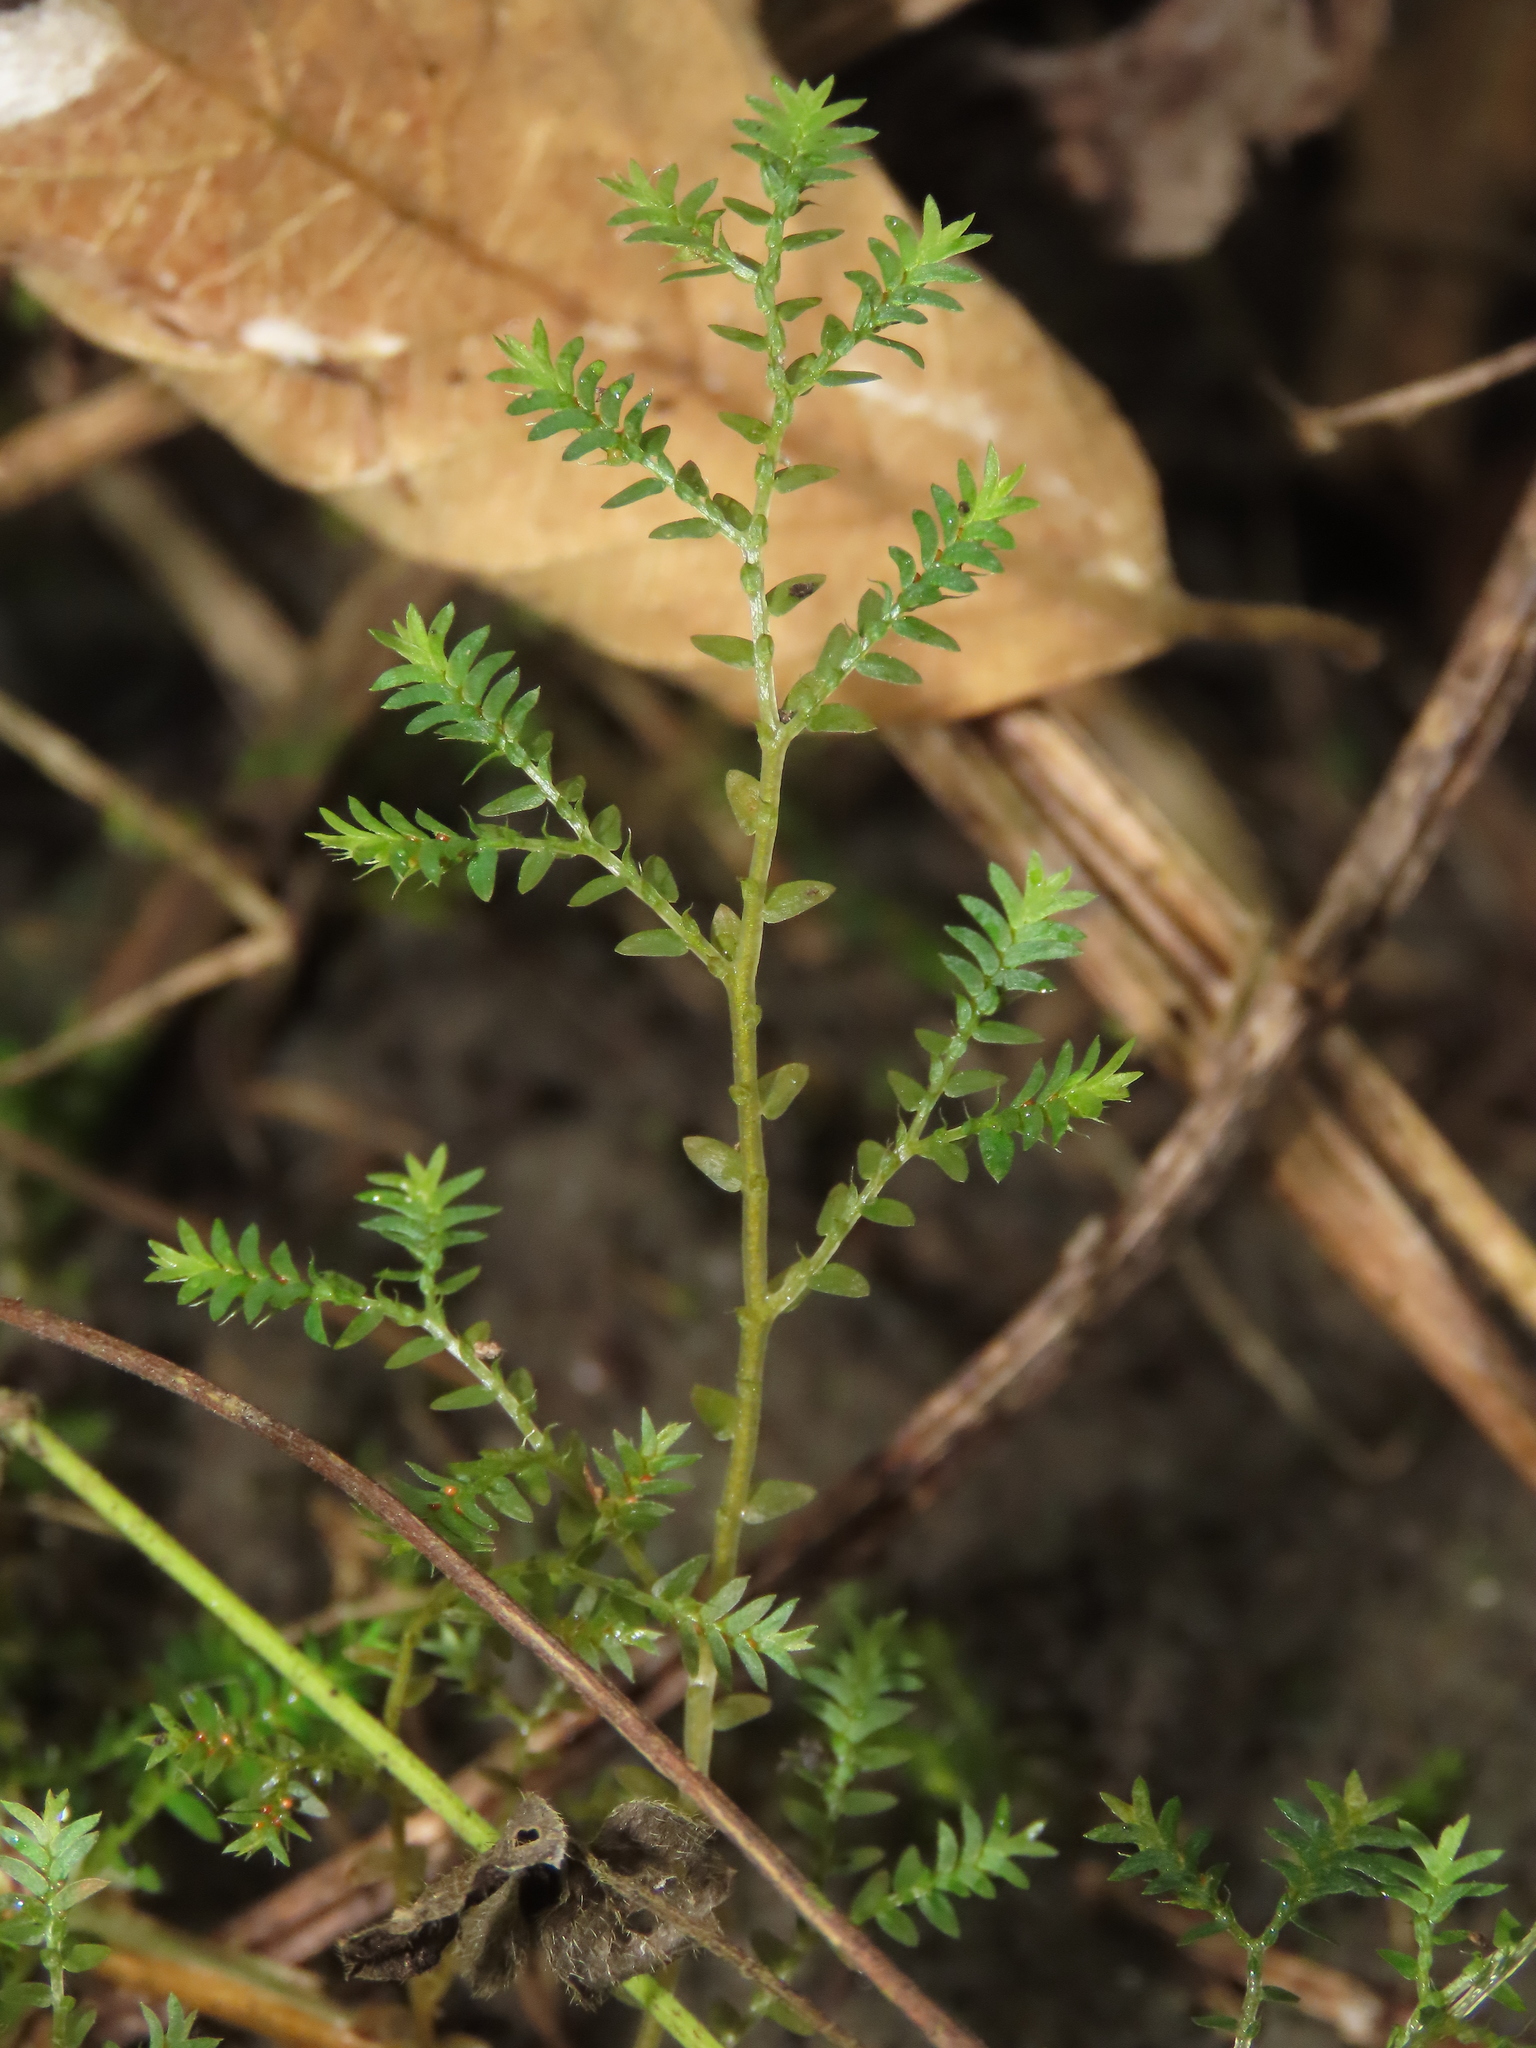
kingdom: Plantae
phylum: Tracheophyta
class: Lycopodiopsida
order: Selaginellales
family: Selaginellaceae
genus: Selaginella
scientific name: Selaginella aristata
